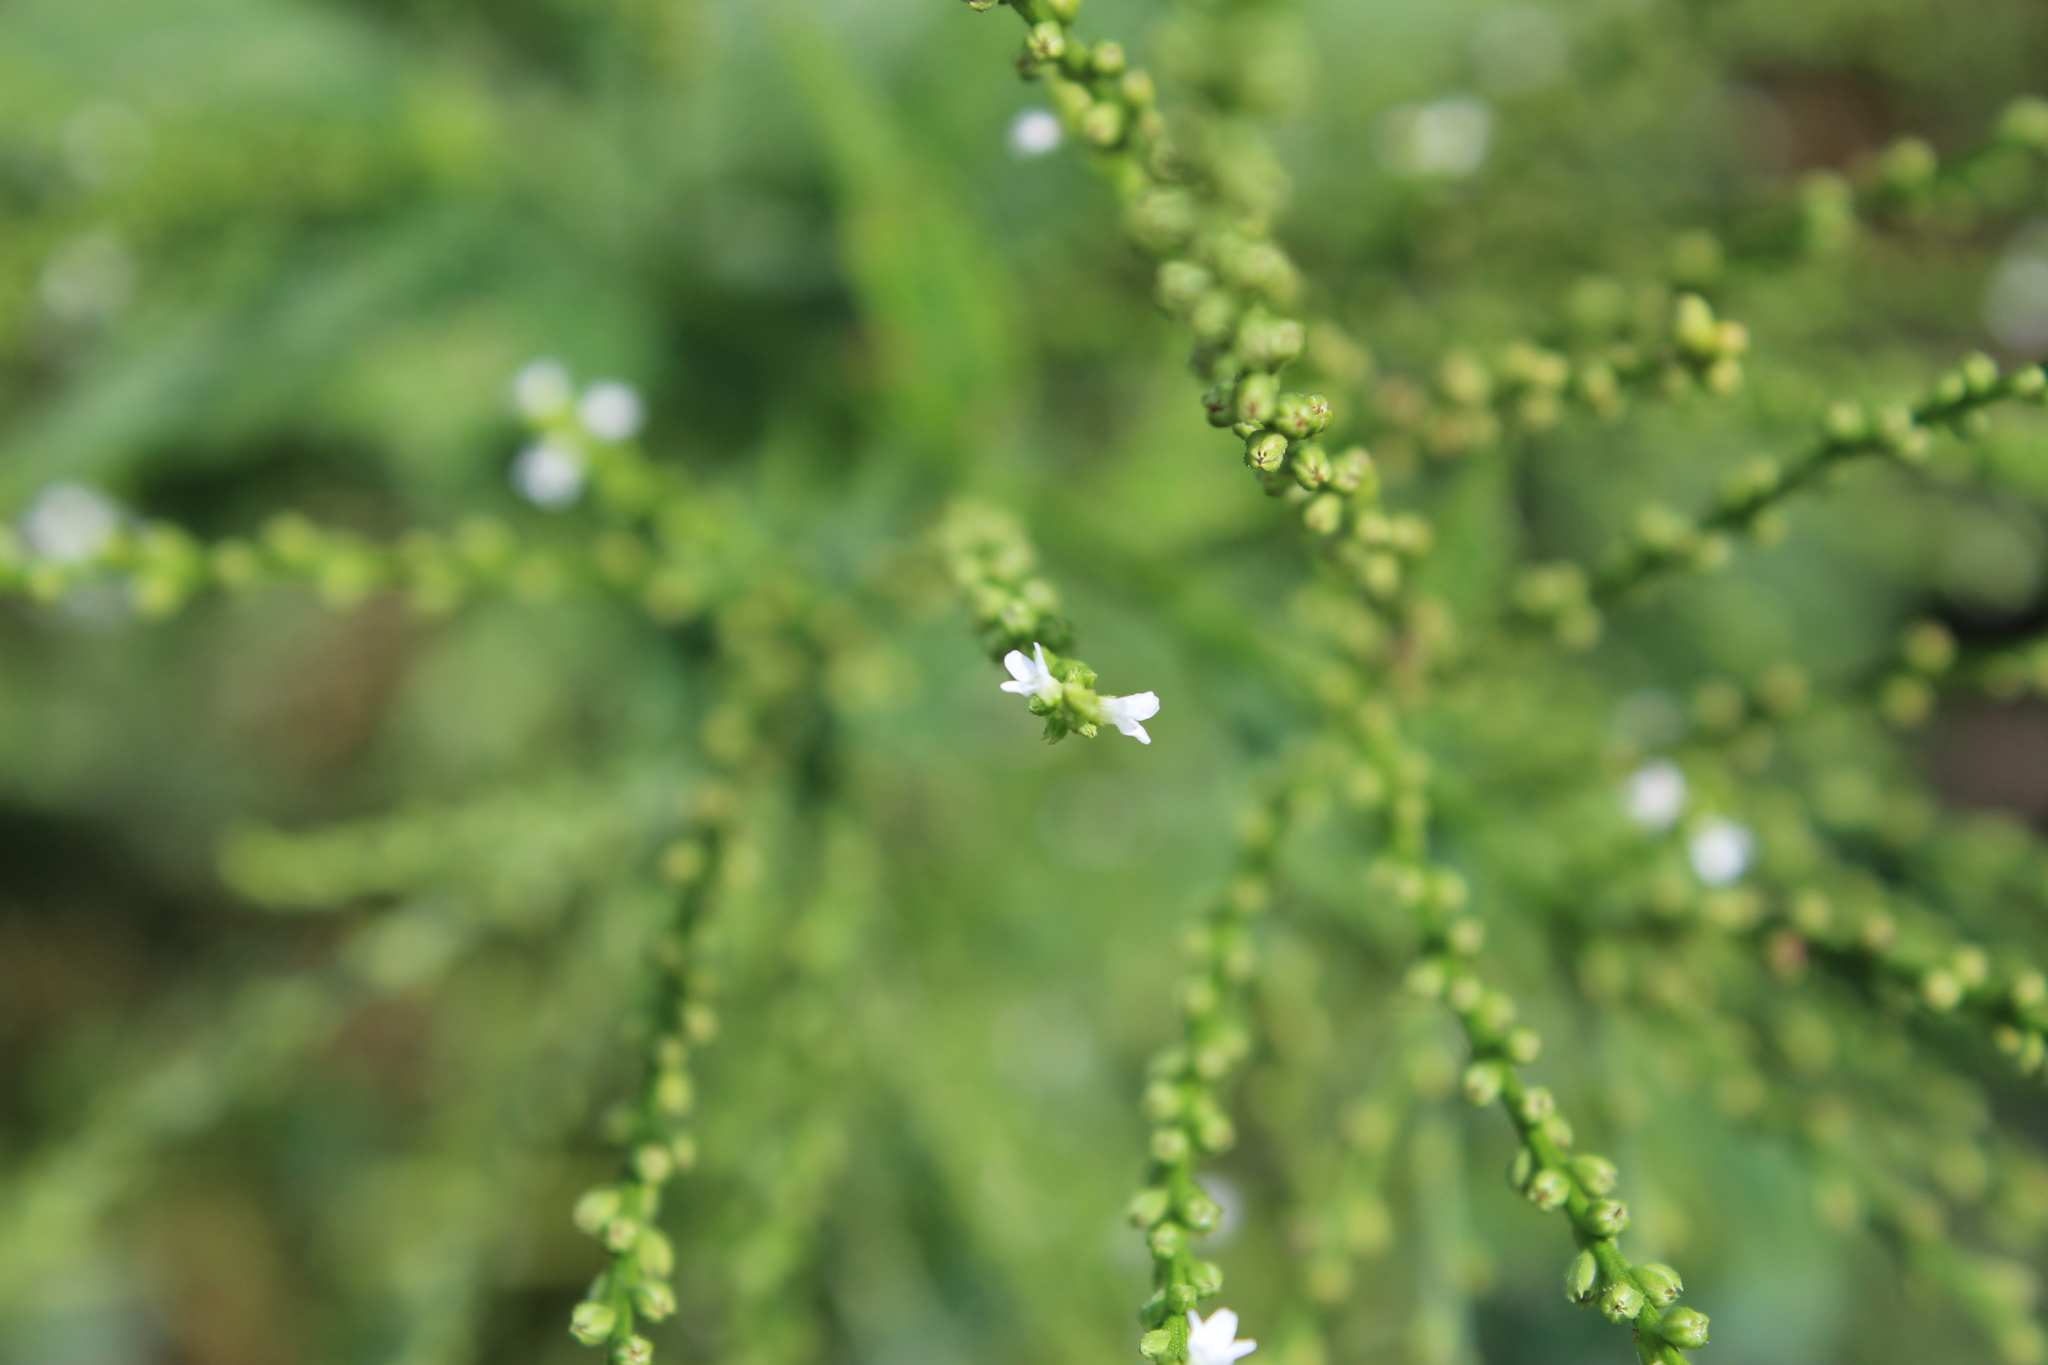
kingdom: Plantae
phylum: Tracheophyta
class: Magnoliopsida
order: Lamiales
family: Verbenaceae
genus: Verbena
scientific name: Verbena urticifolia
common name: Nettle-leaved vervain
